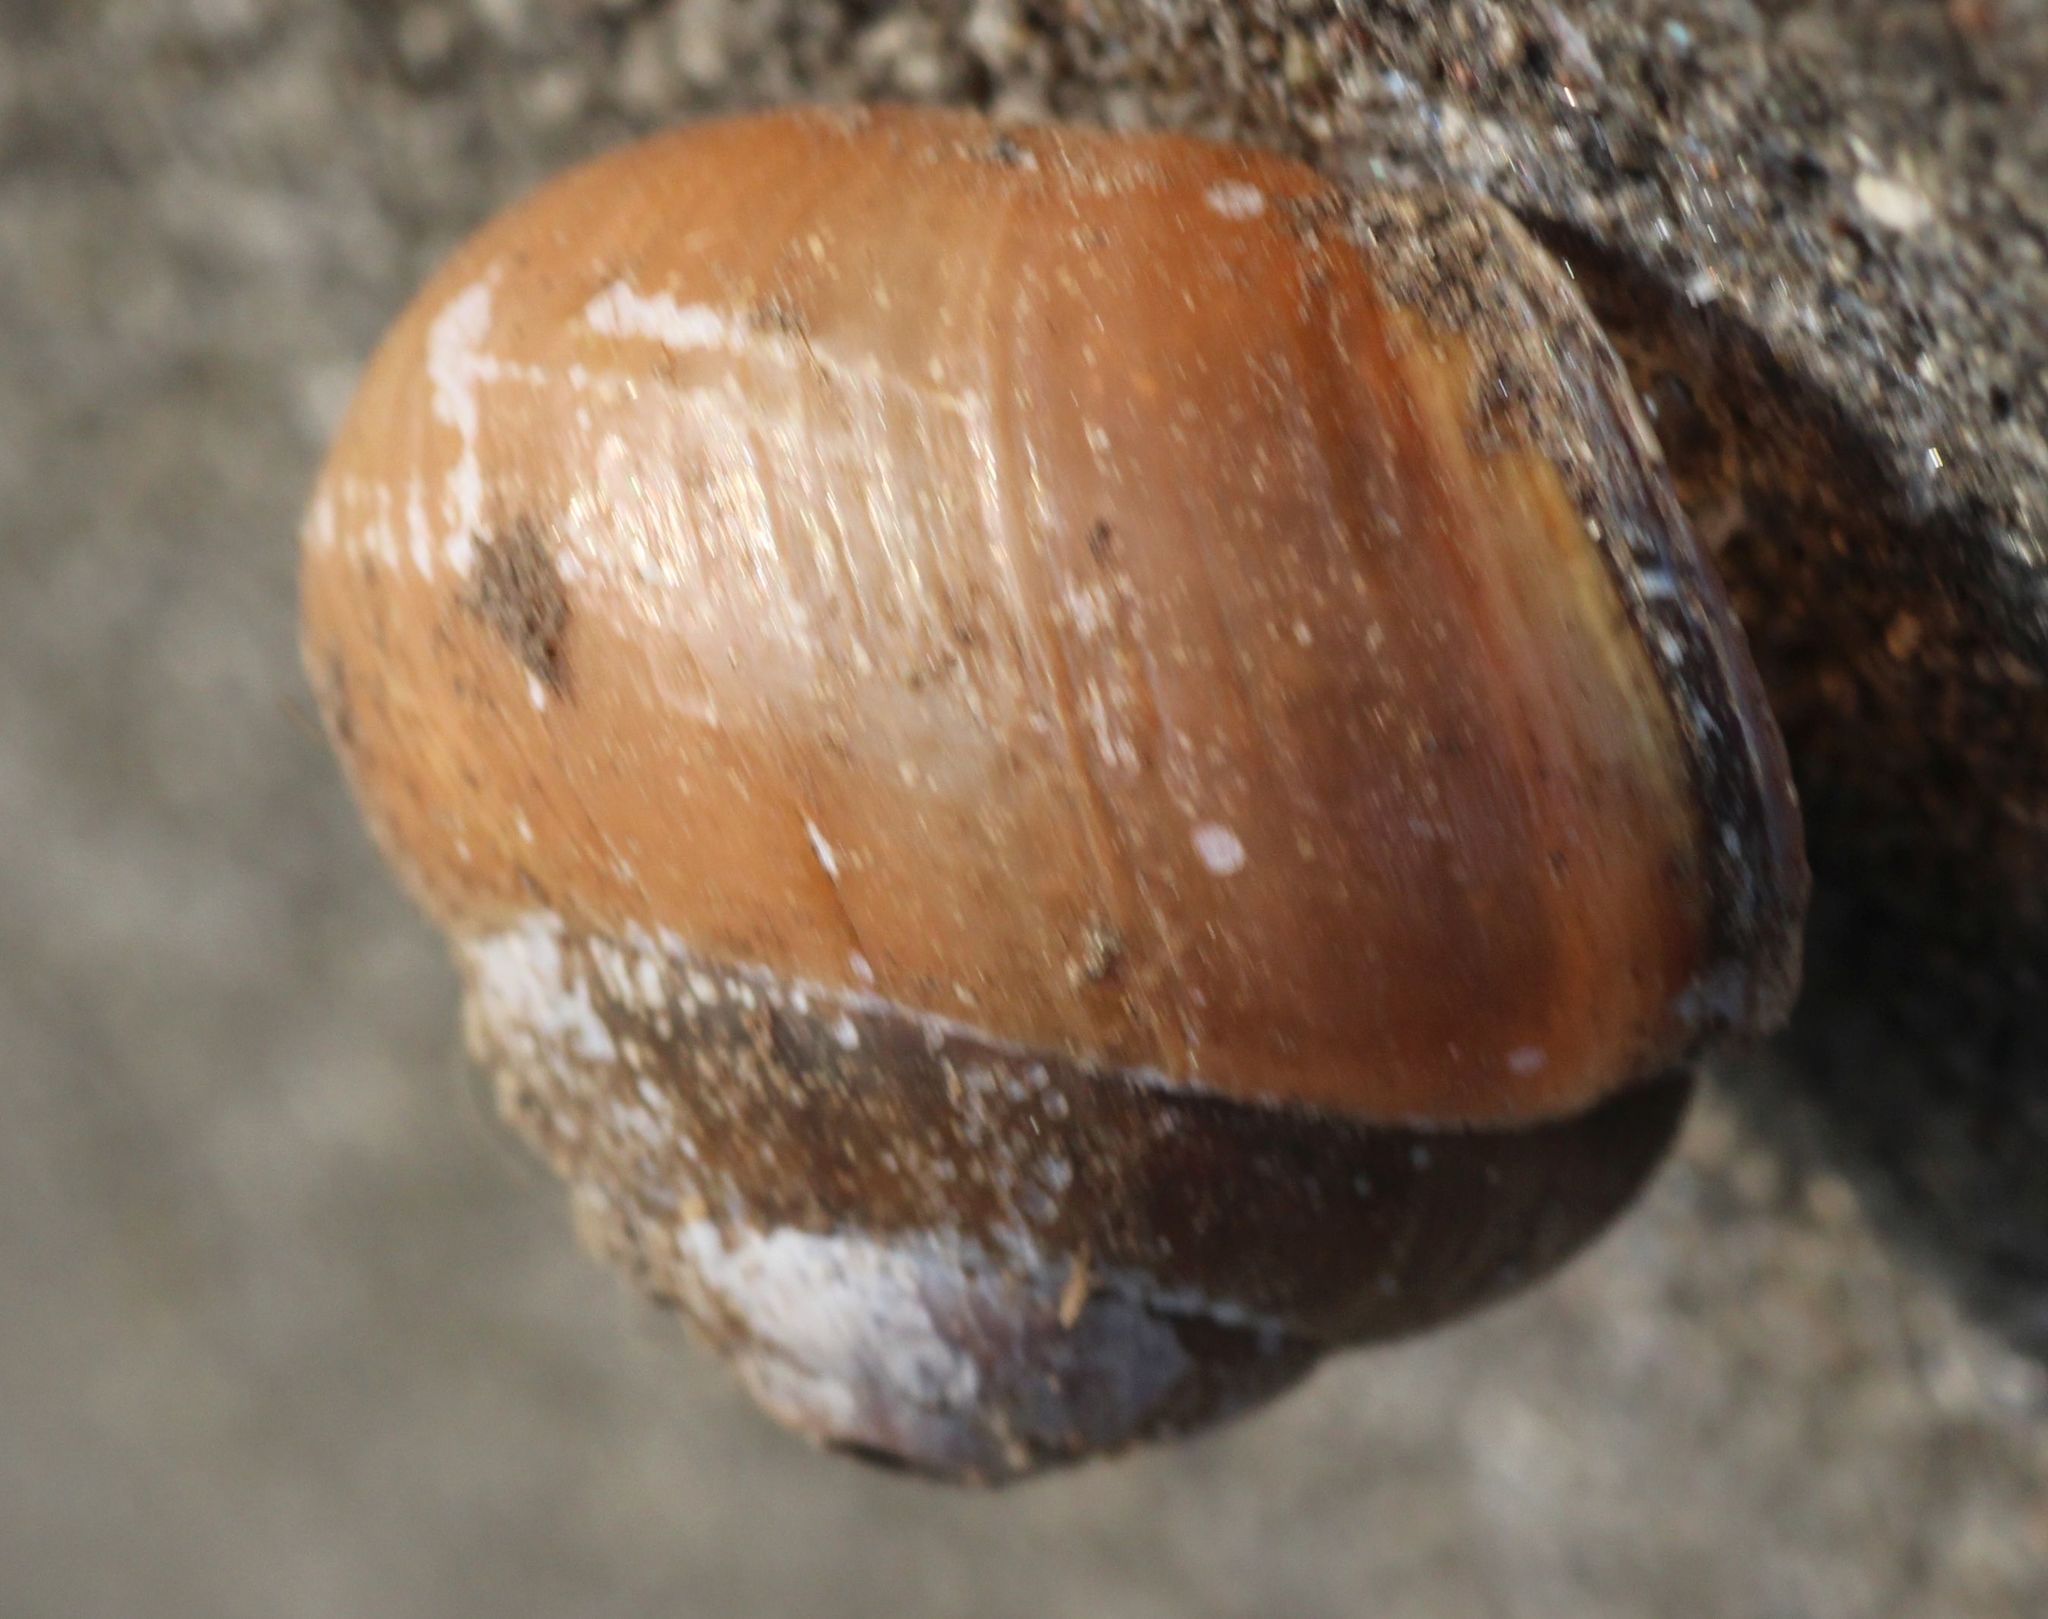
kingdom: Animalia
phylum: Mollusca
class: Gastropoda
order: Stylommatophora
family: Helicidae
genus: Cepaea
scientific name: Cepaea nemoralis
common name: Grovesnail
